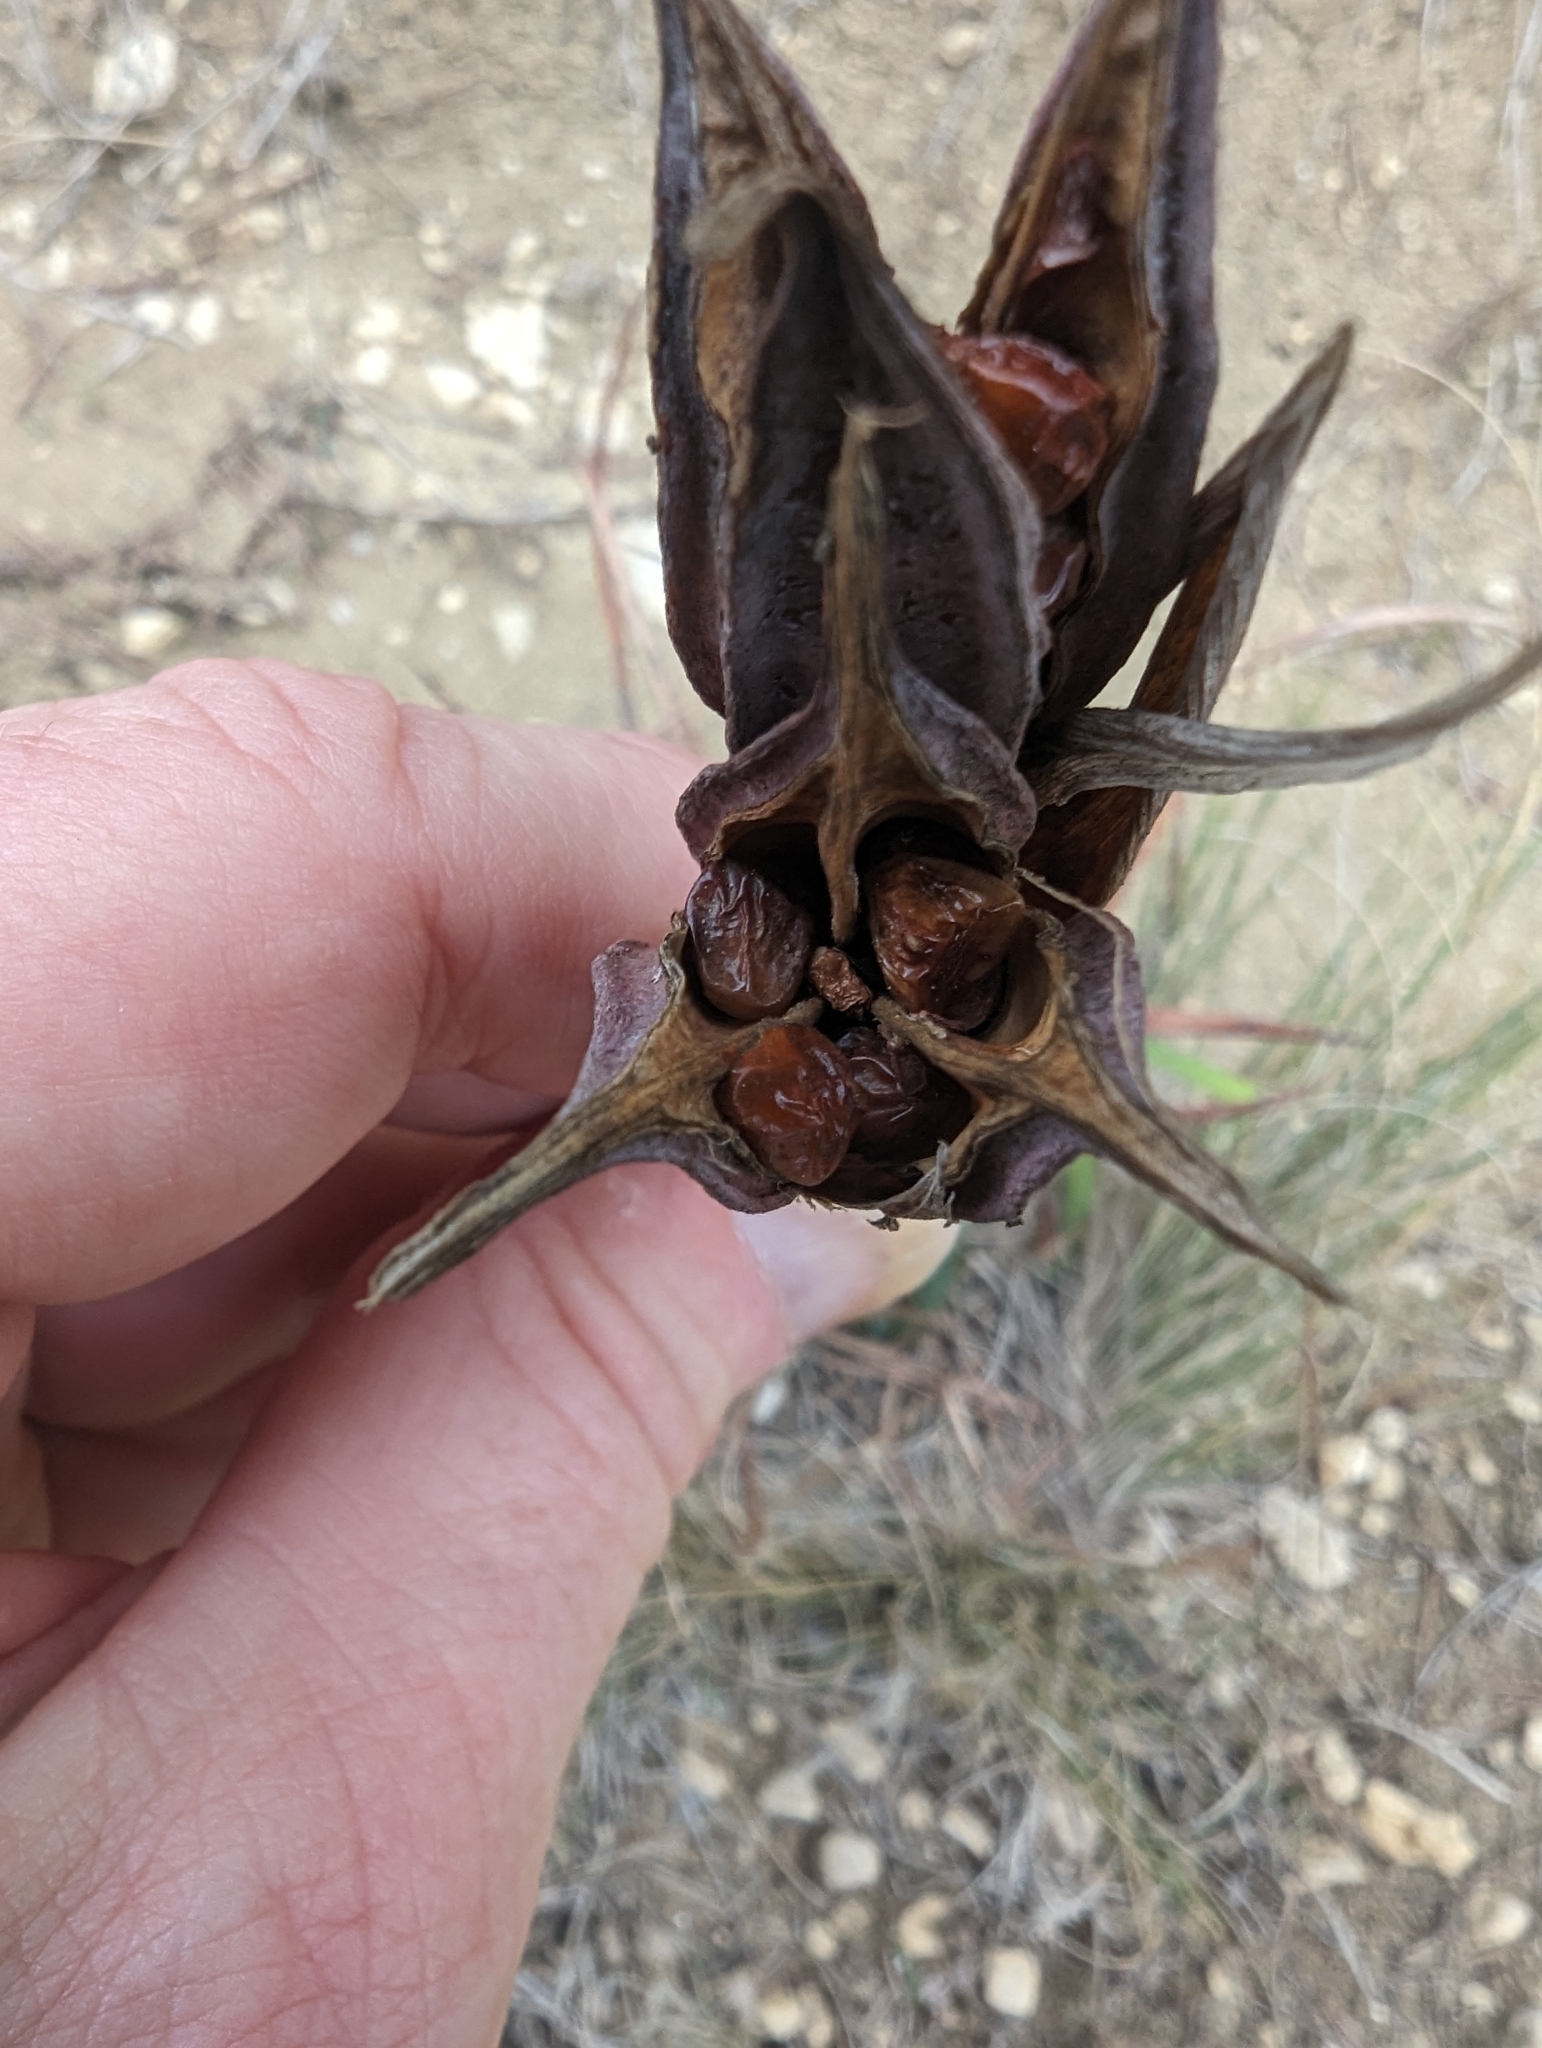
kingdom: Plantae
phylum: Tracheophyta
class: Liliopsida
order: Asparagales
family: Iridaceae
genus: Iris
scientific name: Iris reichenbachiana
